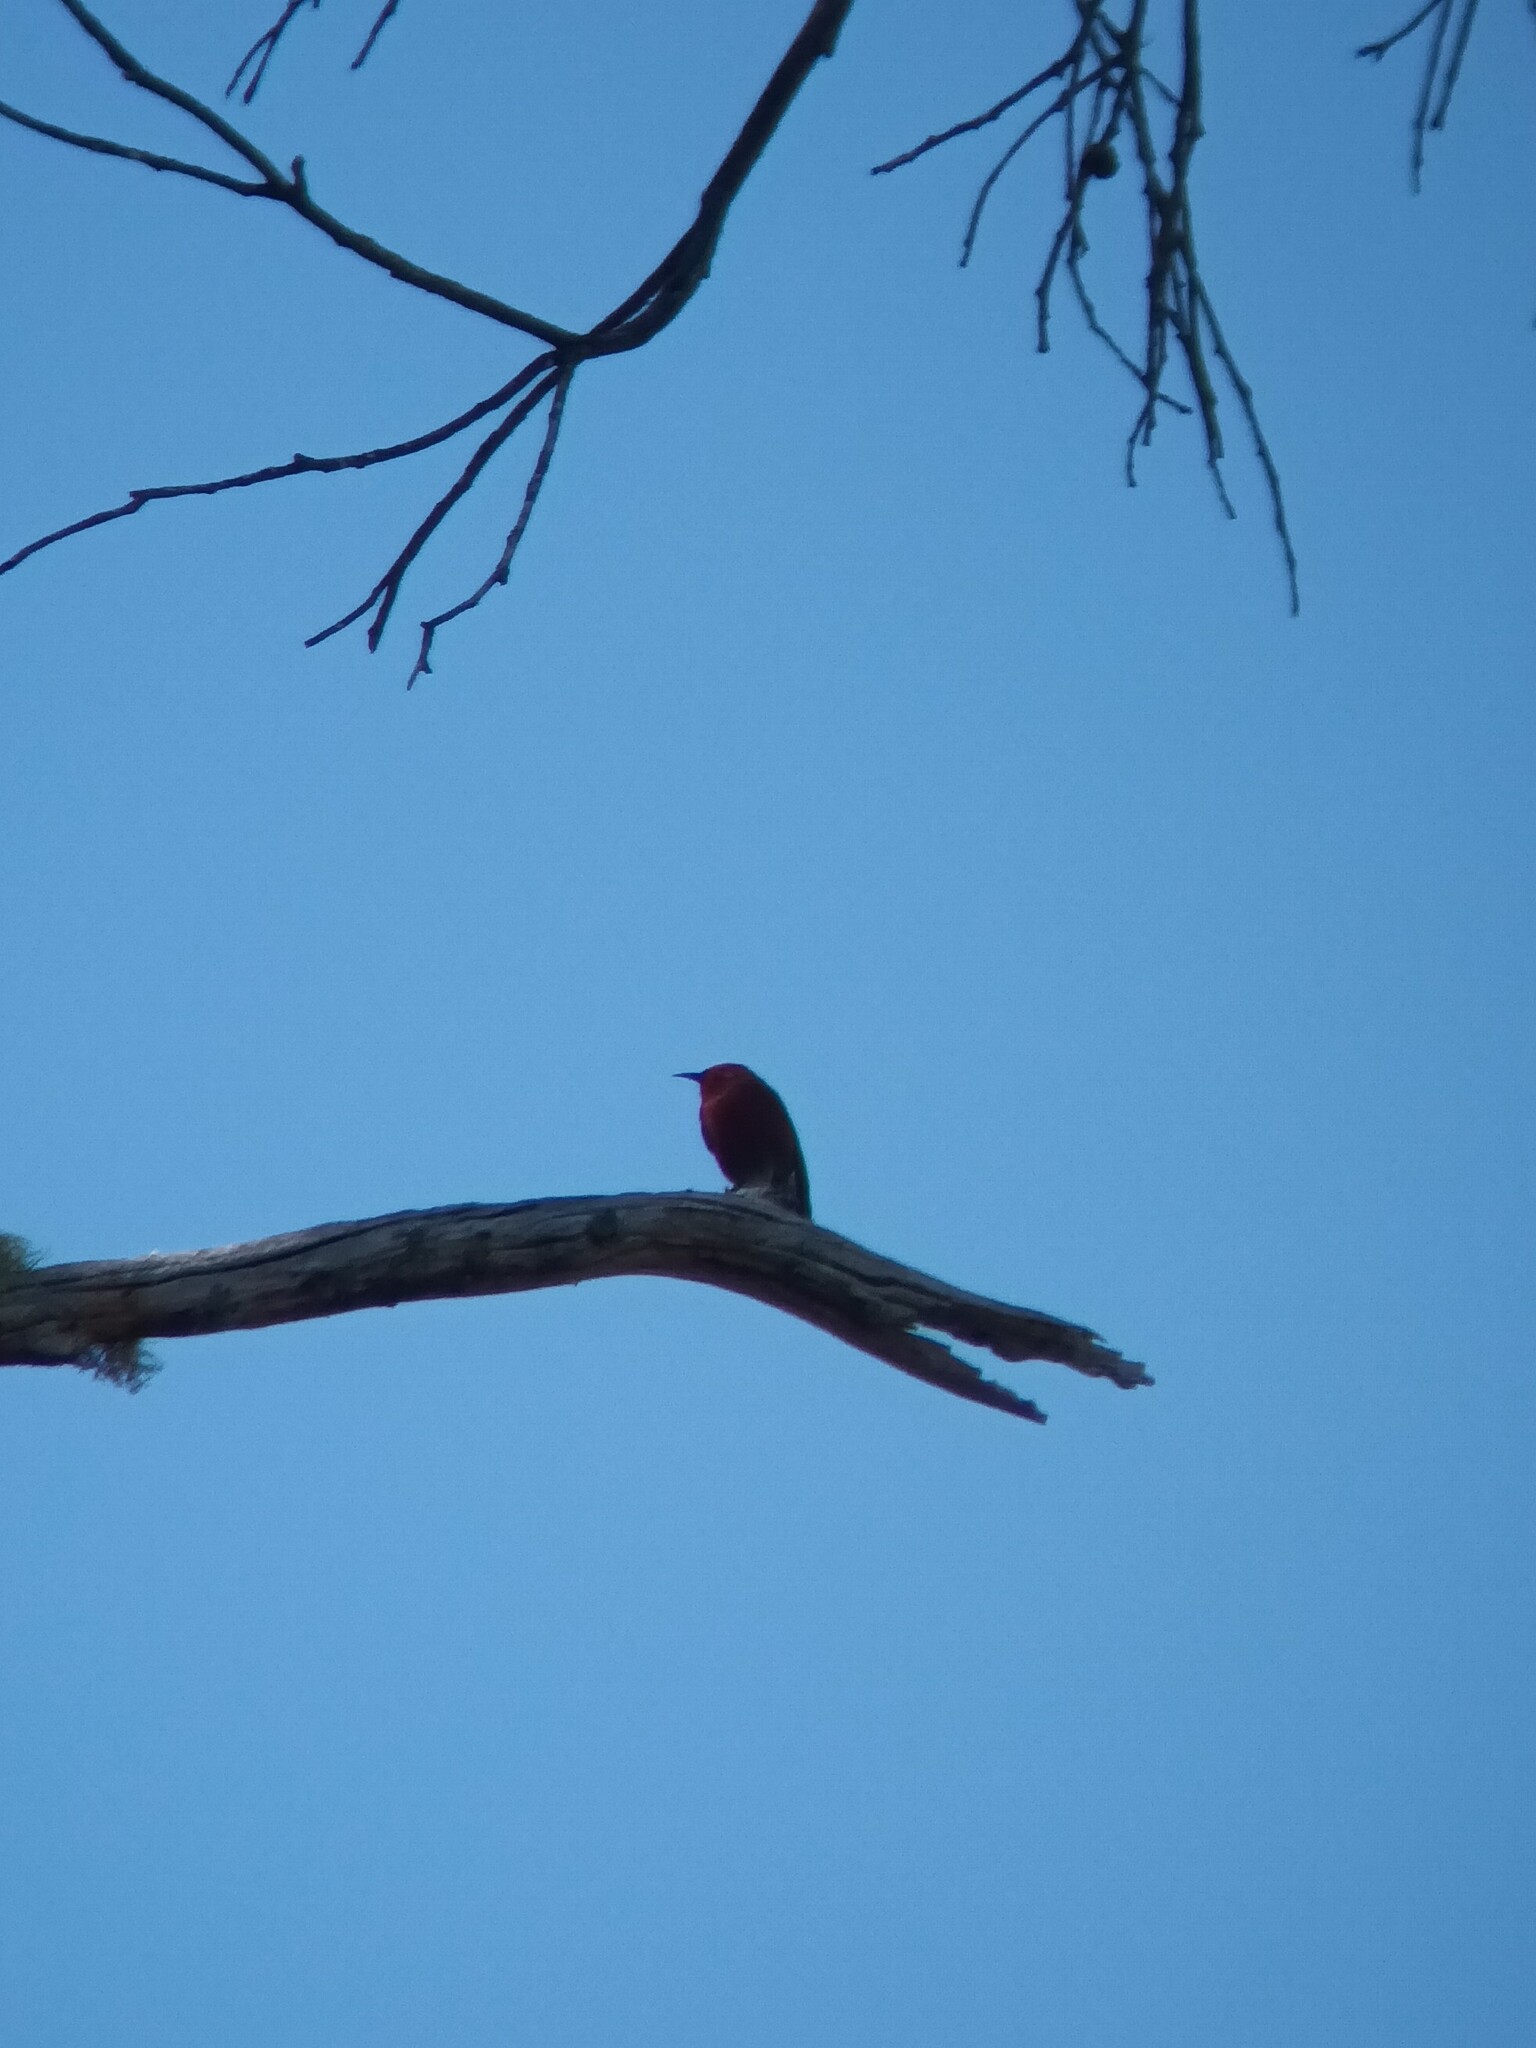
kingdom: Animalia
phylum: Chordata
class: Aves
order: Passeriformes
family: Fringillidae
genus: Himatione
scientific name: Himatione sanguinea
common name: Apapane
